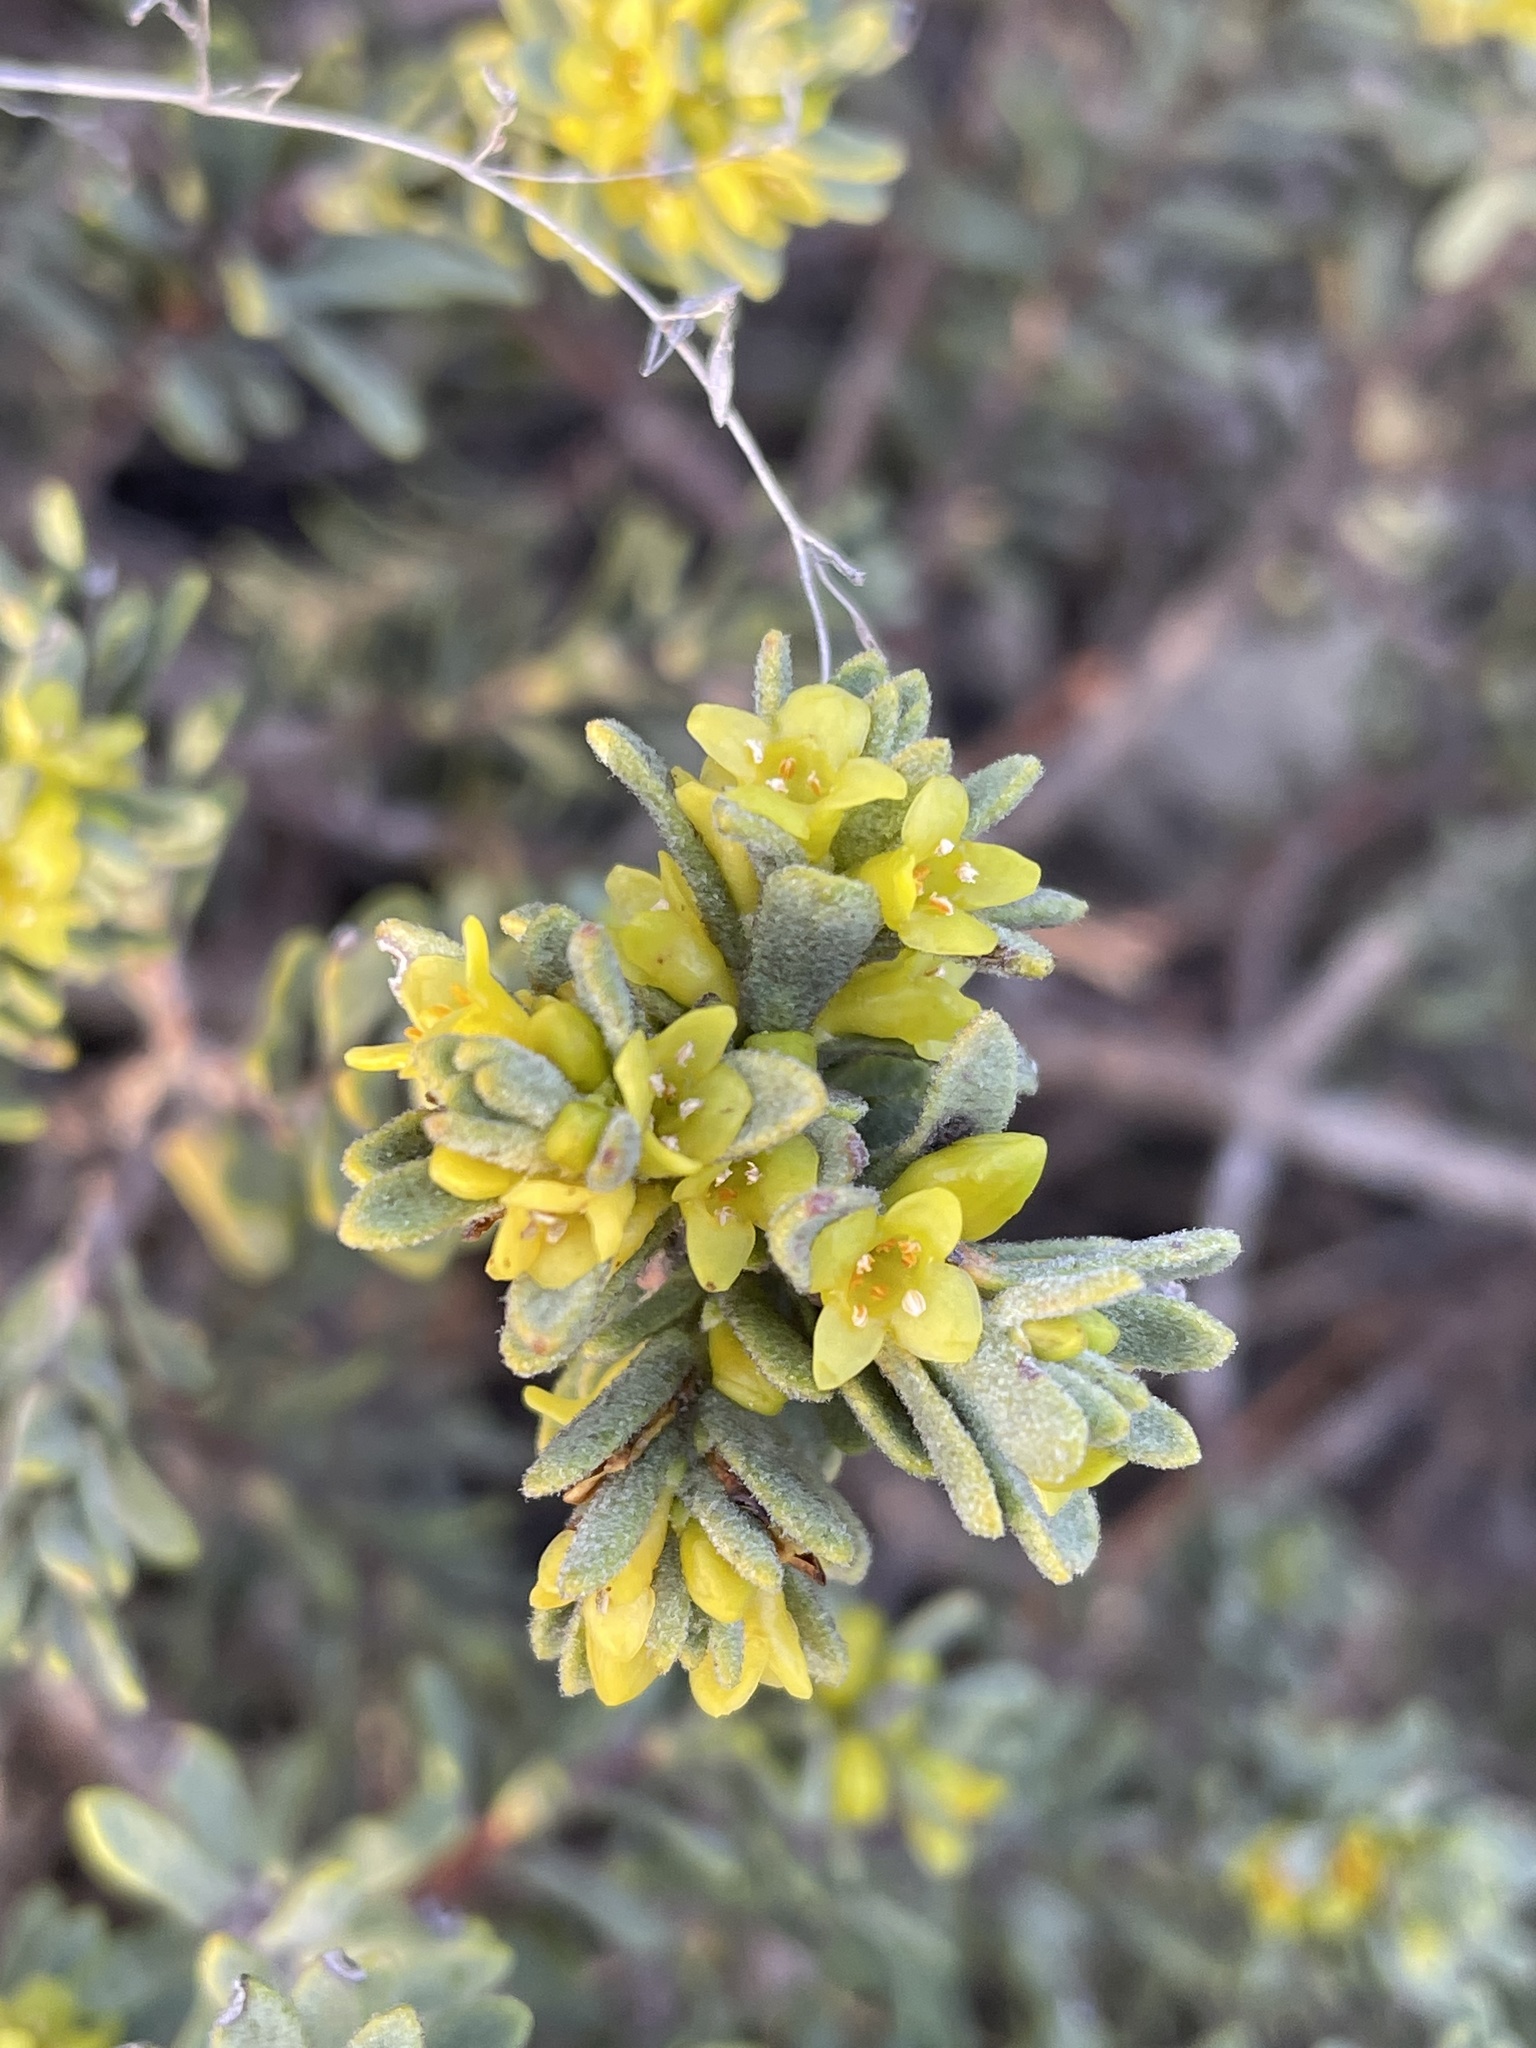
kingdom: Plantae
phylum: Tracheophyta
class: Magnoliopsida
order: Malvales
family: Thymelaeaceae
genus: Thymelaea
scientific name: Thymelaea tinctoria
